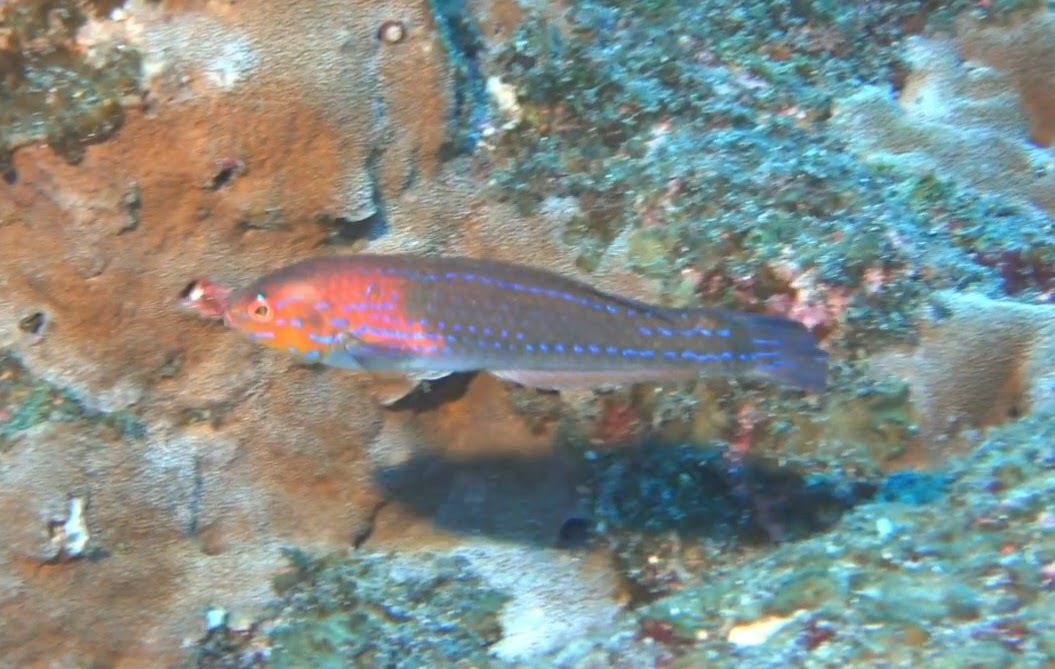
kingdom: Animalia
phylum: Chordata
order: Perciformes
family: Labridae
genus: Halichoeres
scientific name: Halichoeres dispilus
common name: Chameleon wrasse
